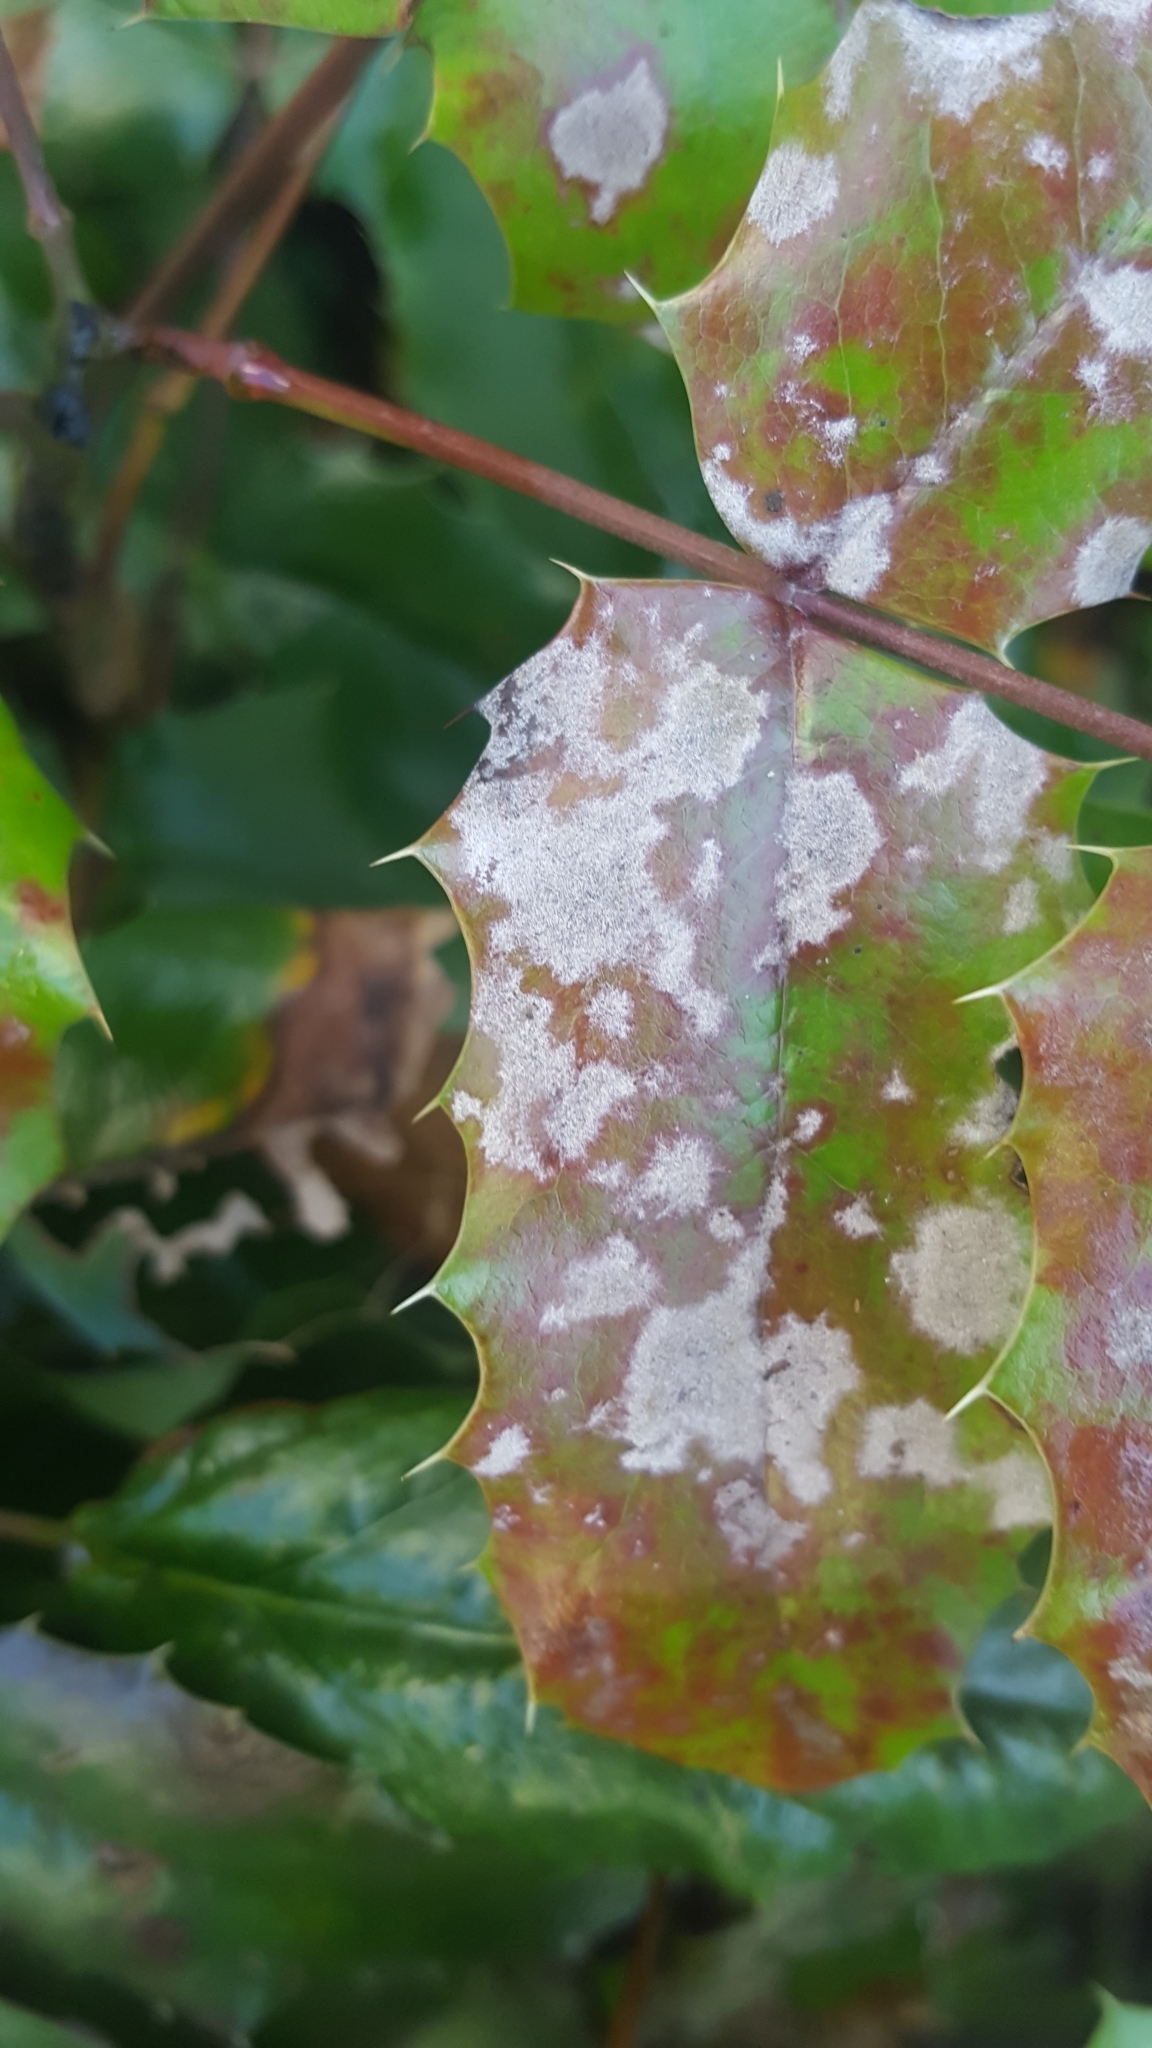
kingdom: Fungi
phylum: Ascomycota
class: Leotiomycetes
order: Helotiales
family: Erysiphaceae
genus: Erysiphe
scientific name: Erysiphe berberidis
